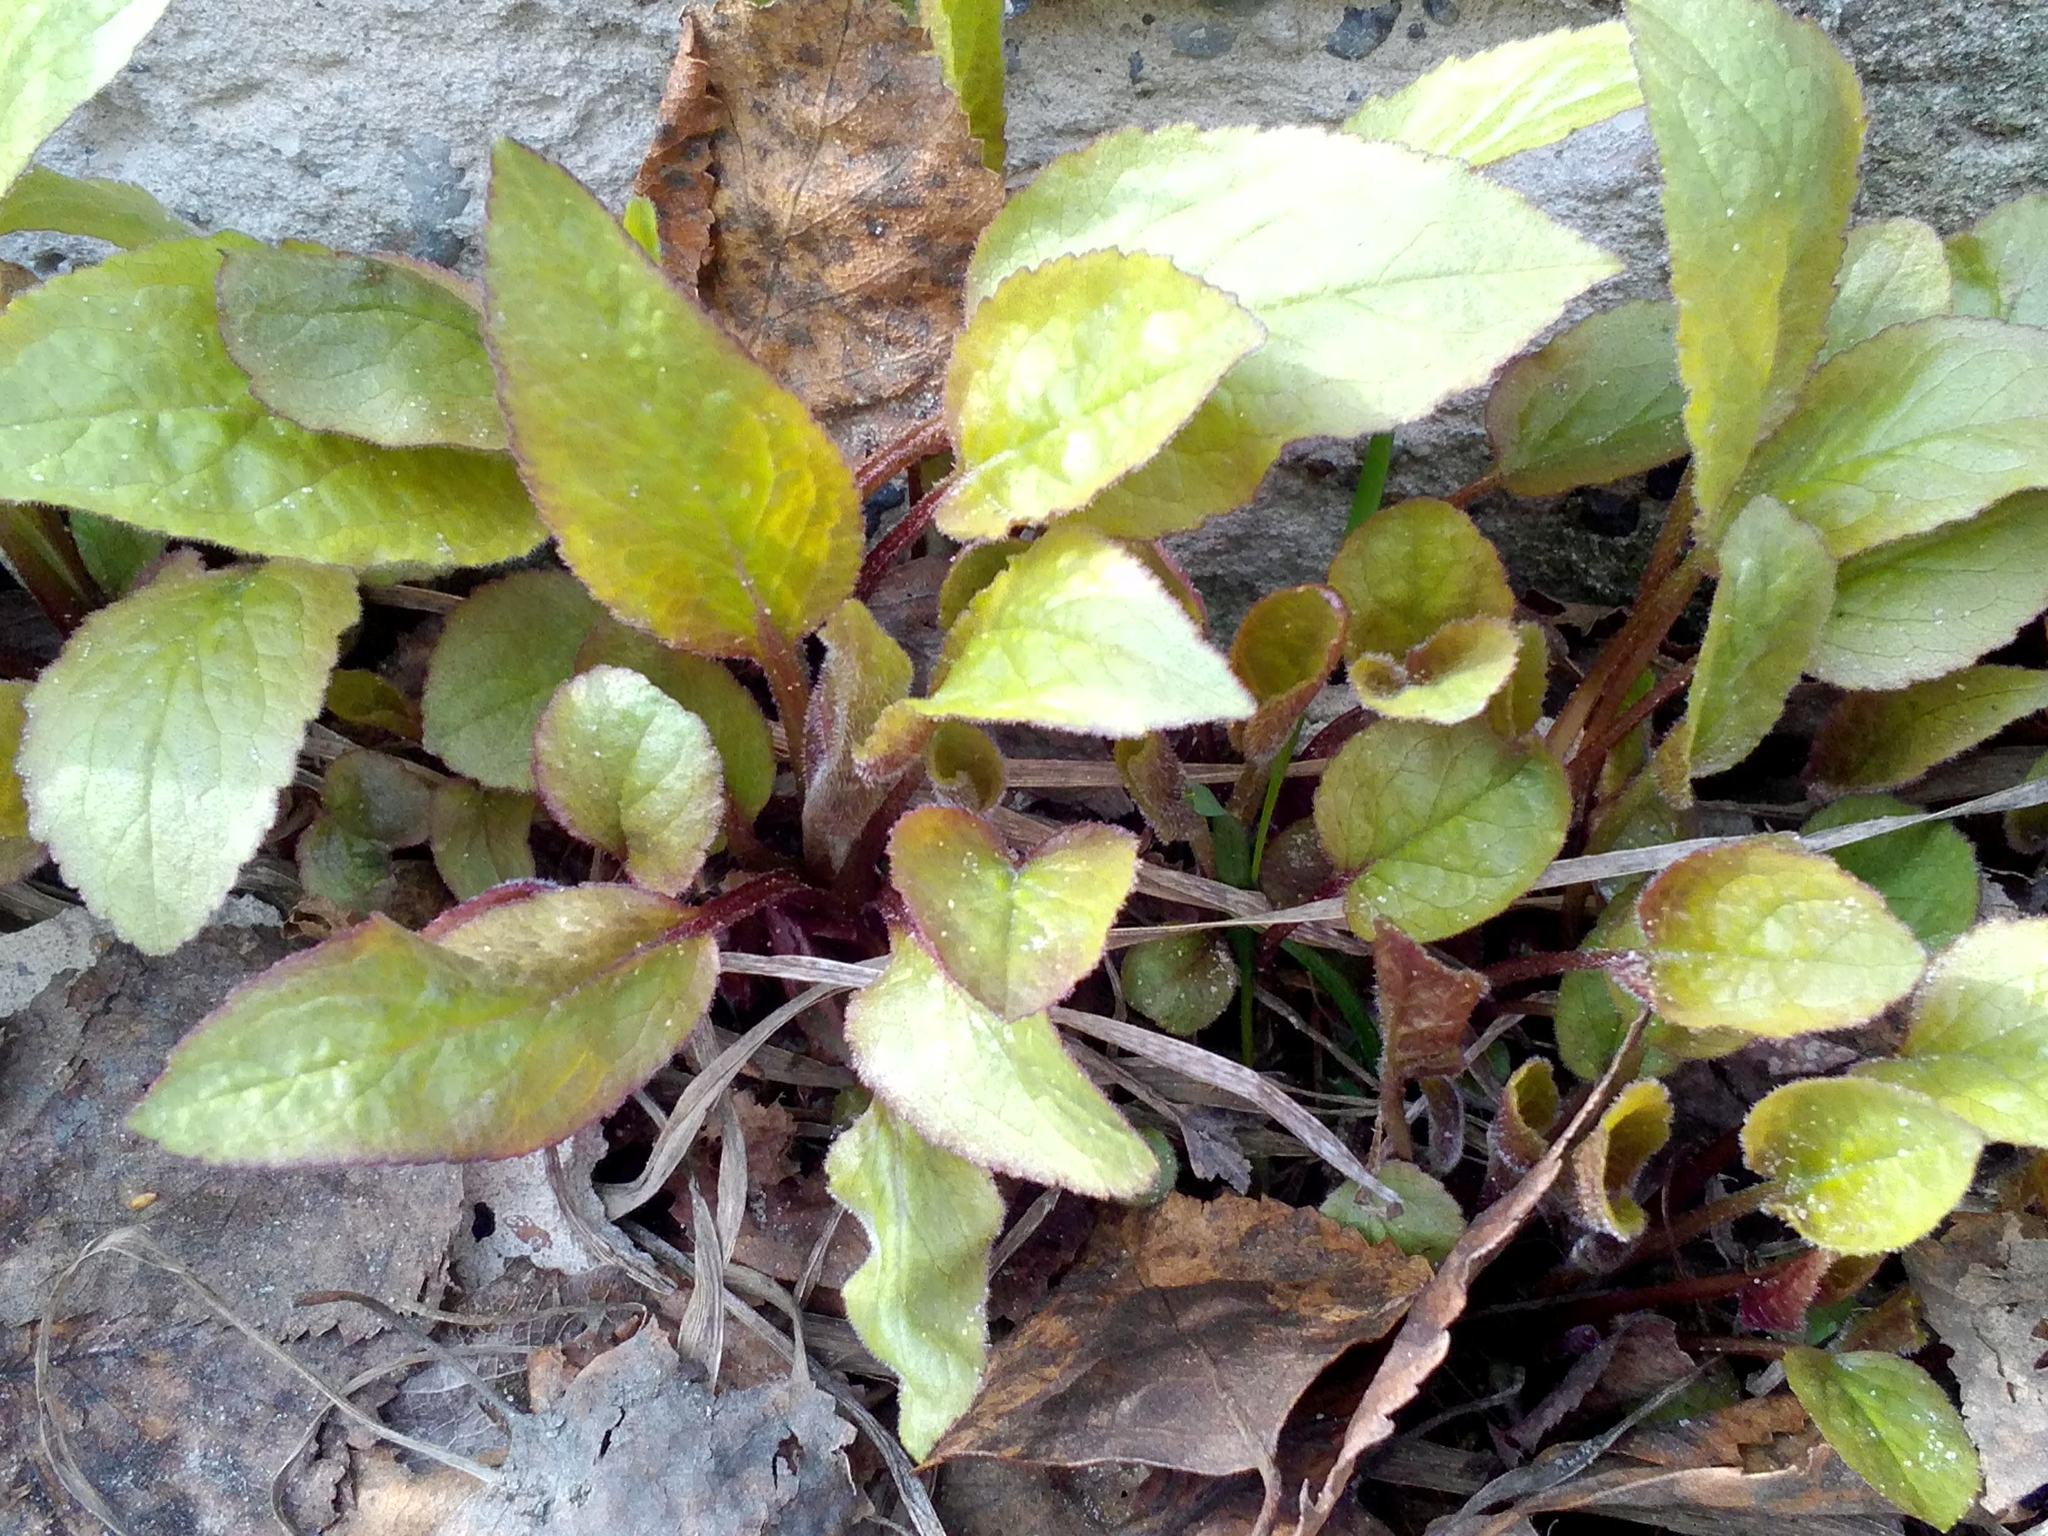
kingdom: Plantae
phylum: Tracheophyta
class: Magnoliopsida
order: Asterales
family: Campanulaceae
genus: Campanula
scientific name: Campanula rapunculoides
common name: Creeping bellflower
